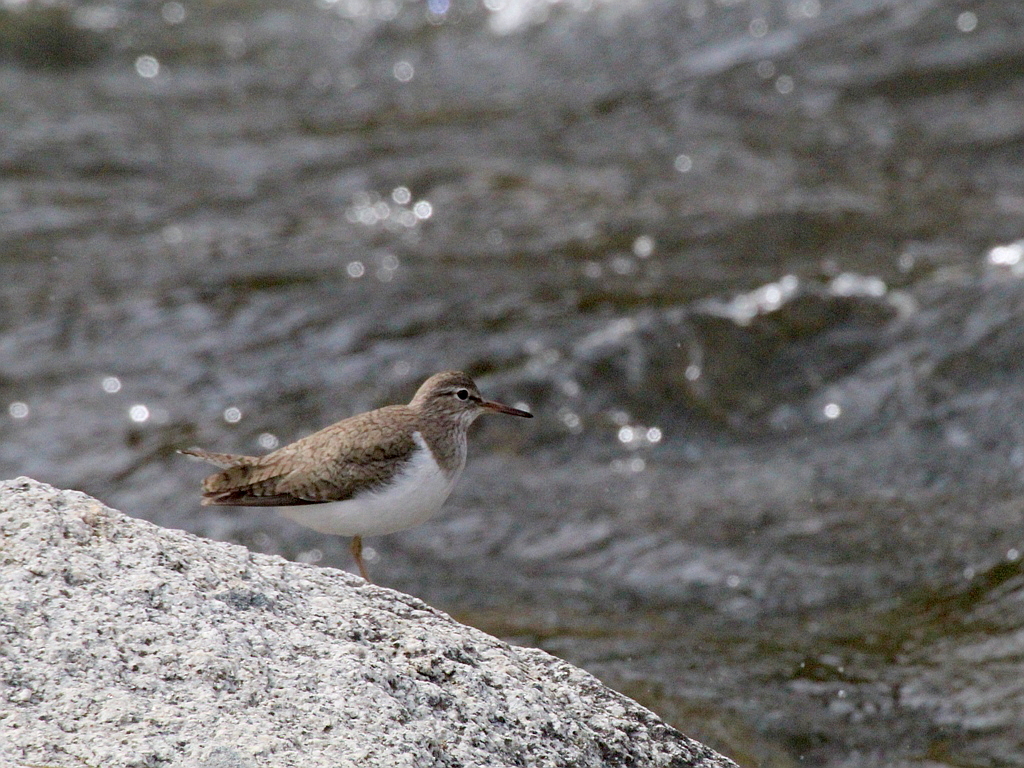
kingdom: Animalia
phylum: Chordata
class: Aves
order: Charadriiformes
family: Scolopacidae
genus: Actitis
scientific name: Actitis hypoleucos
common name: Common sandpiper
